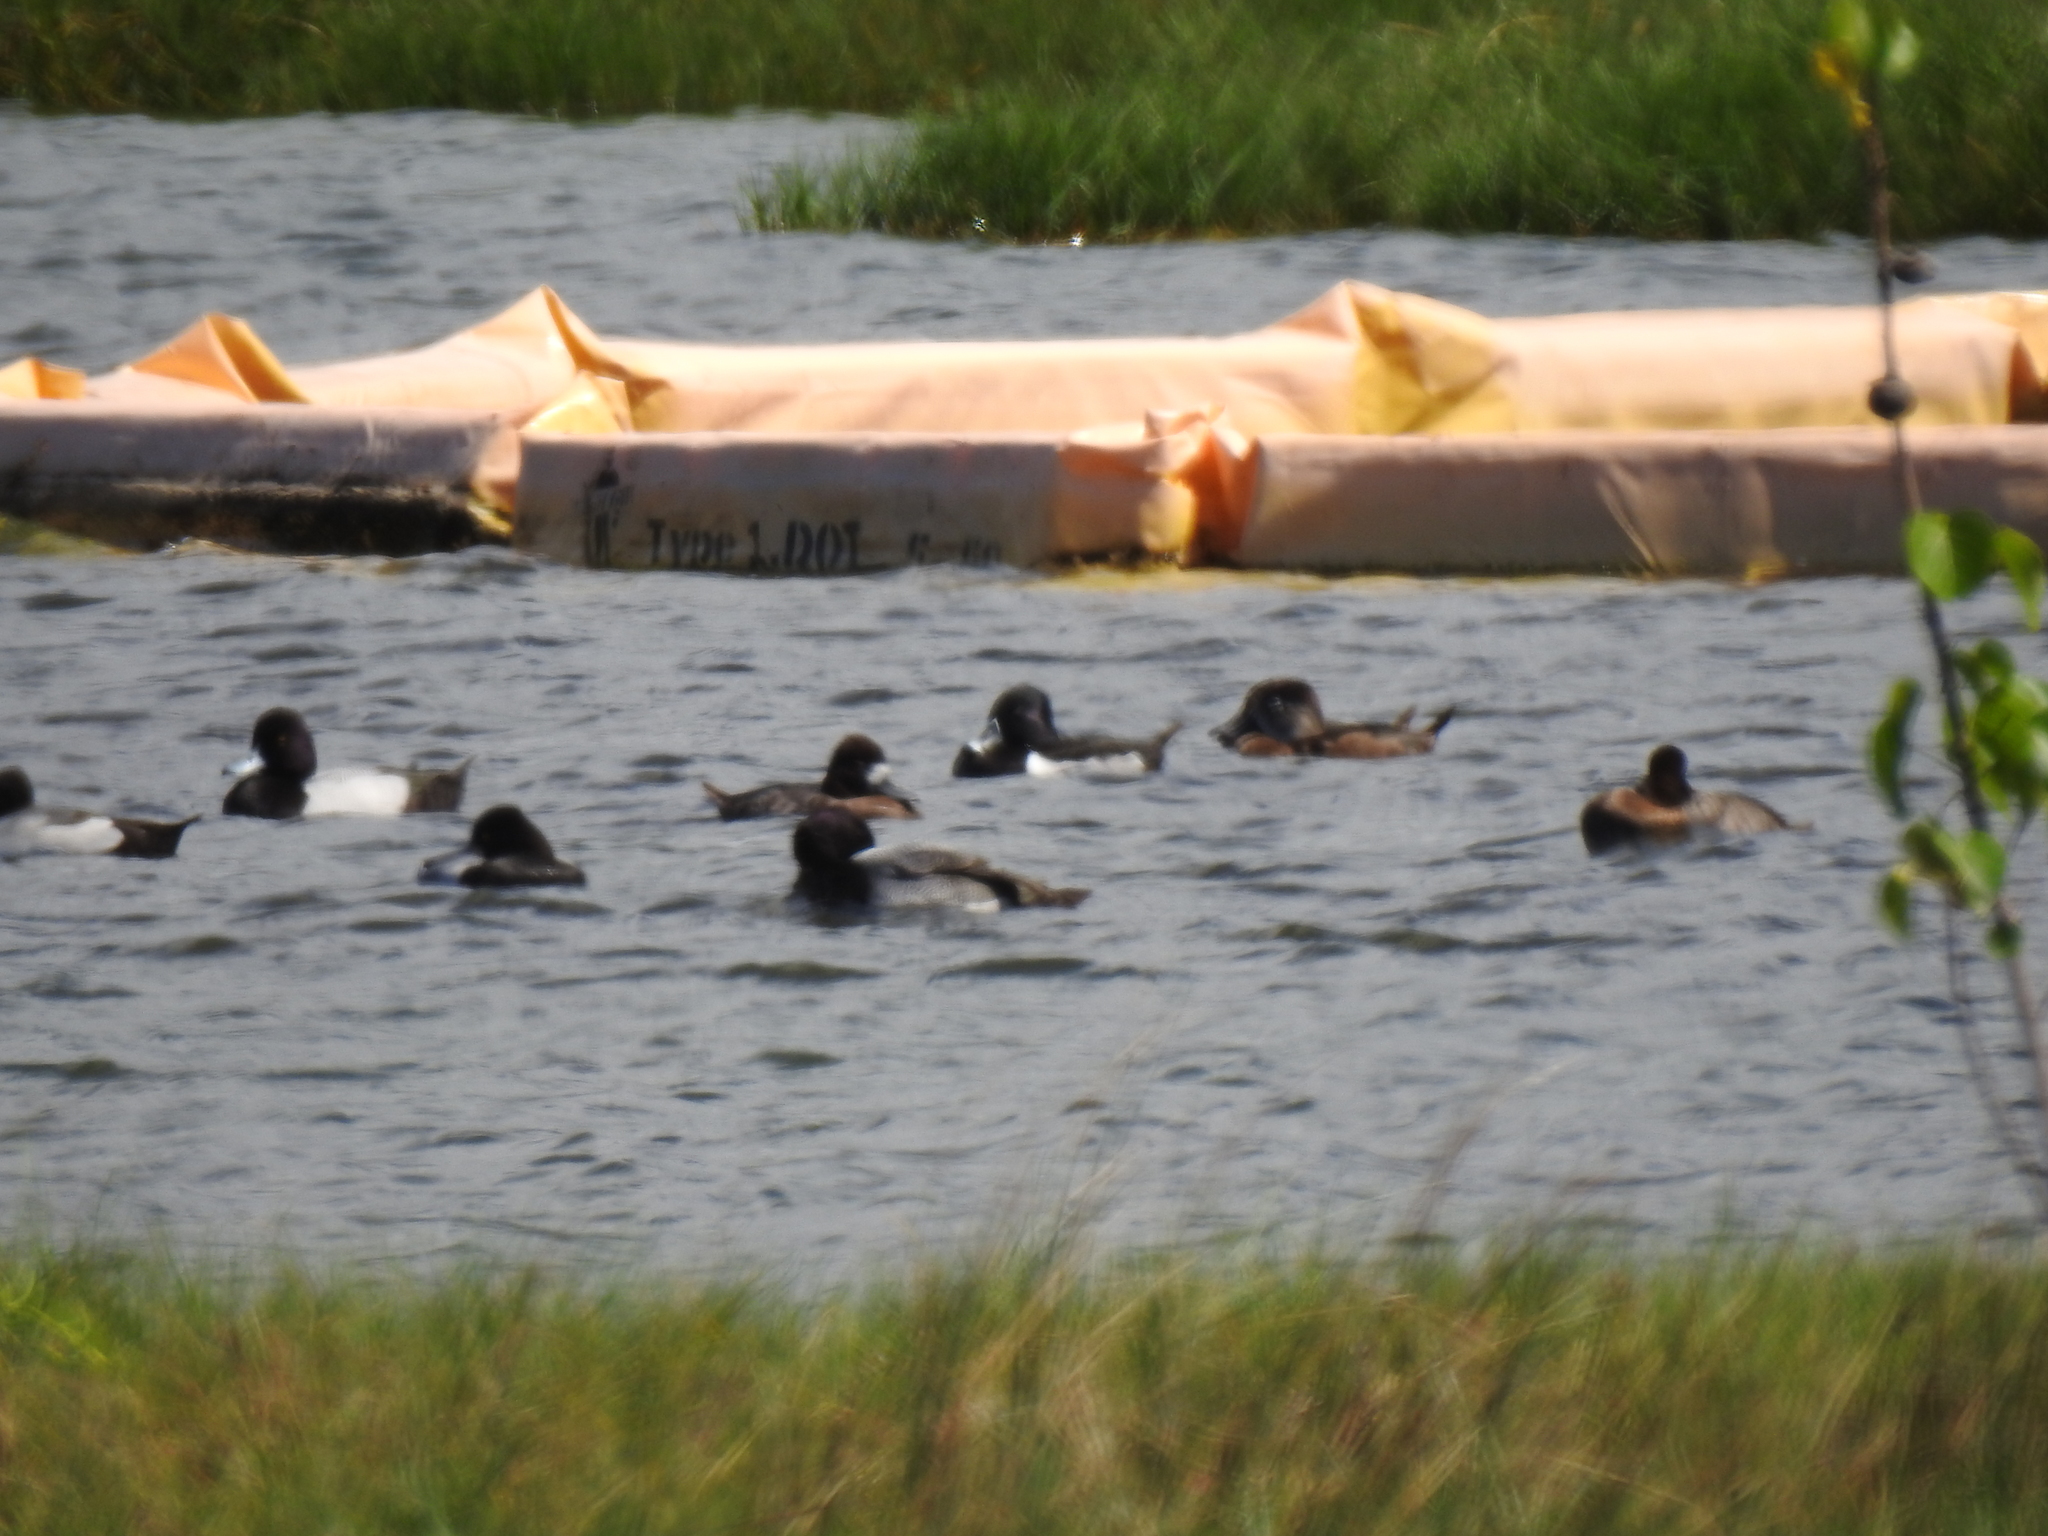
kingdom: Animalia
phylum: Chordata
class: Aves
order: Anseriformes
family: Anatidae
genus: Aythya
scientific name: Aythya affinis
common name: Lesser scaup
